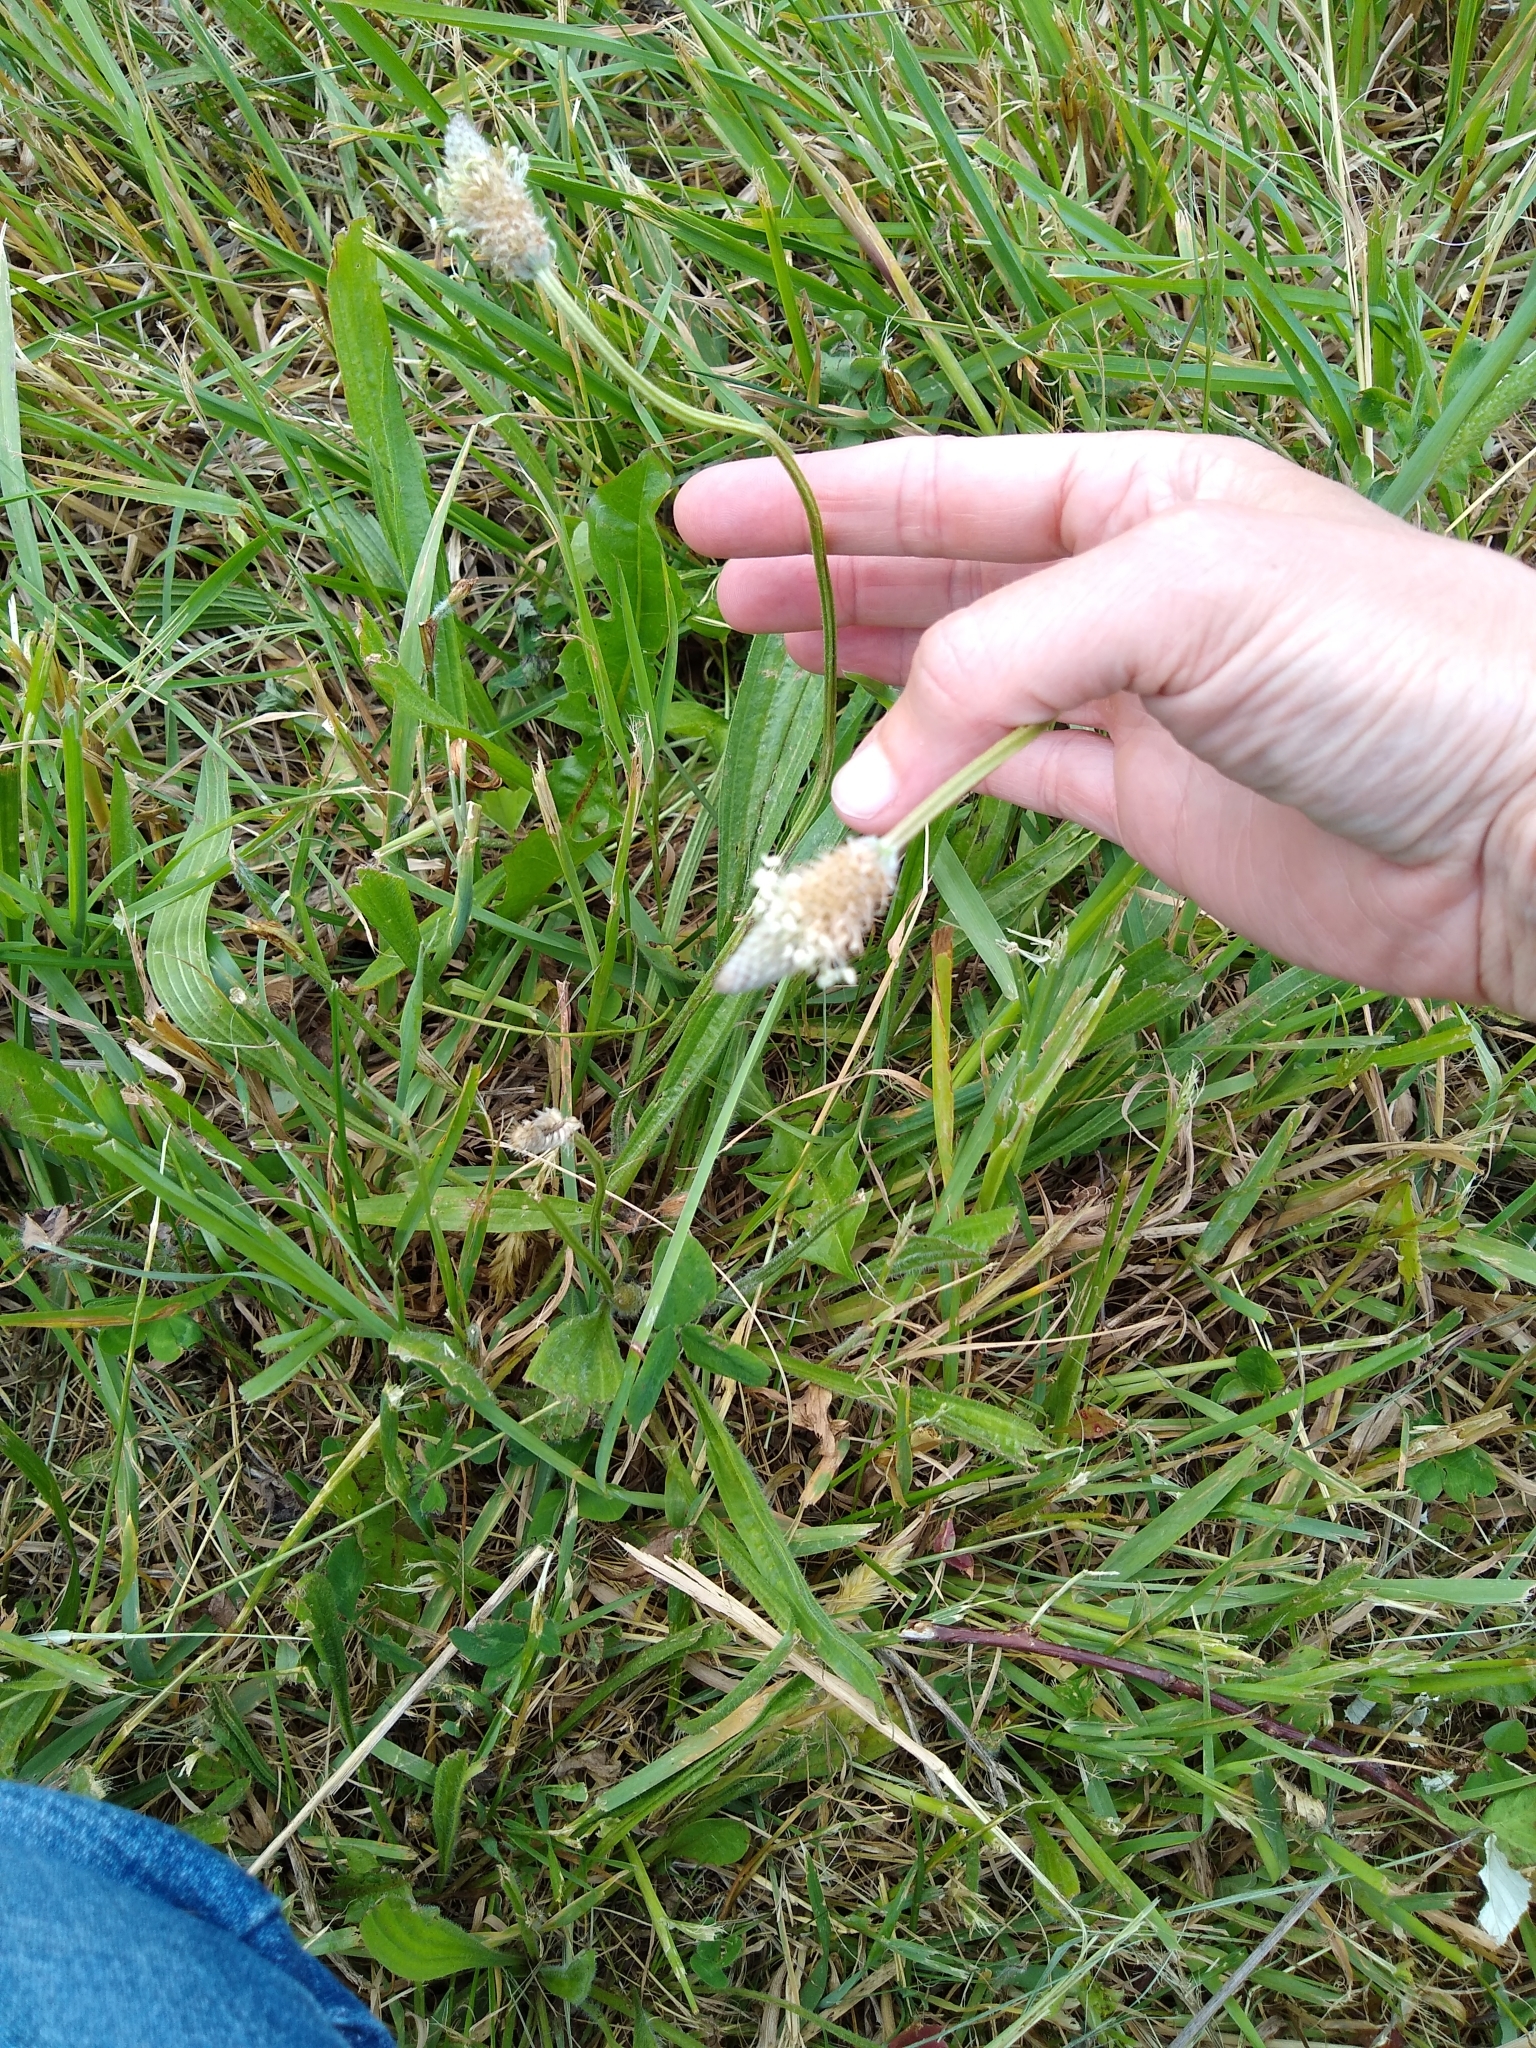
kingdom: Plantae
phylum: Tracheophyta
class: Magnoliopsida
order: Lamiales
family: Plantaginaceae
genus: Plantago
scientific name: Plantago lanceolata
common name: Ribwort plantain
